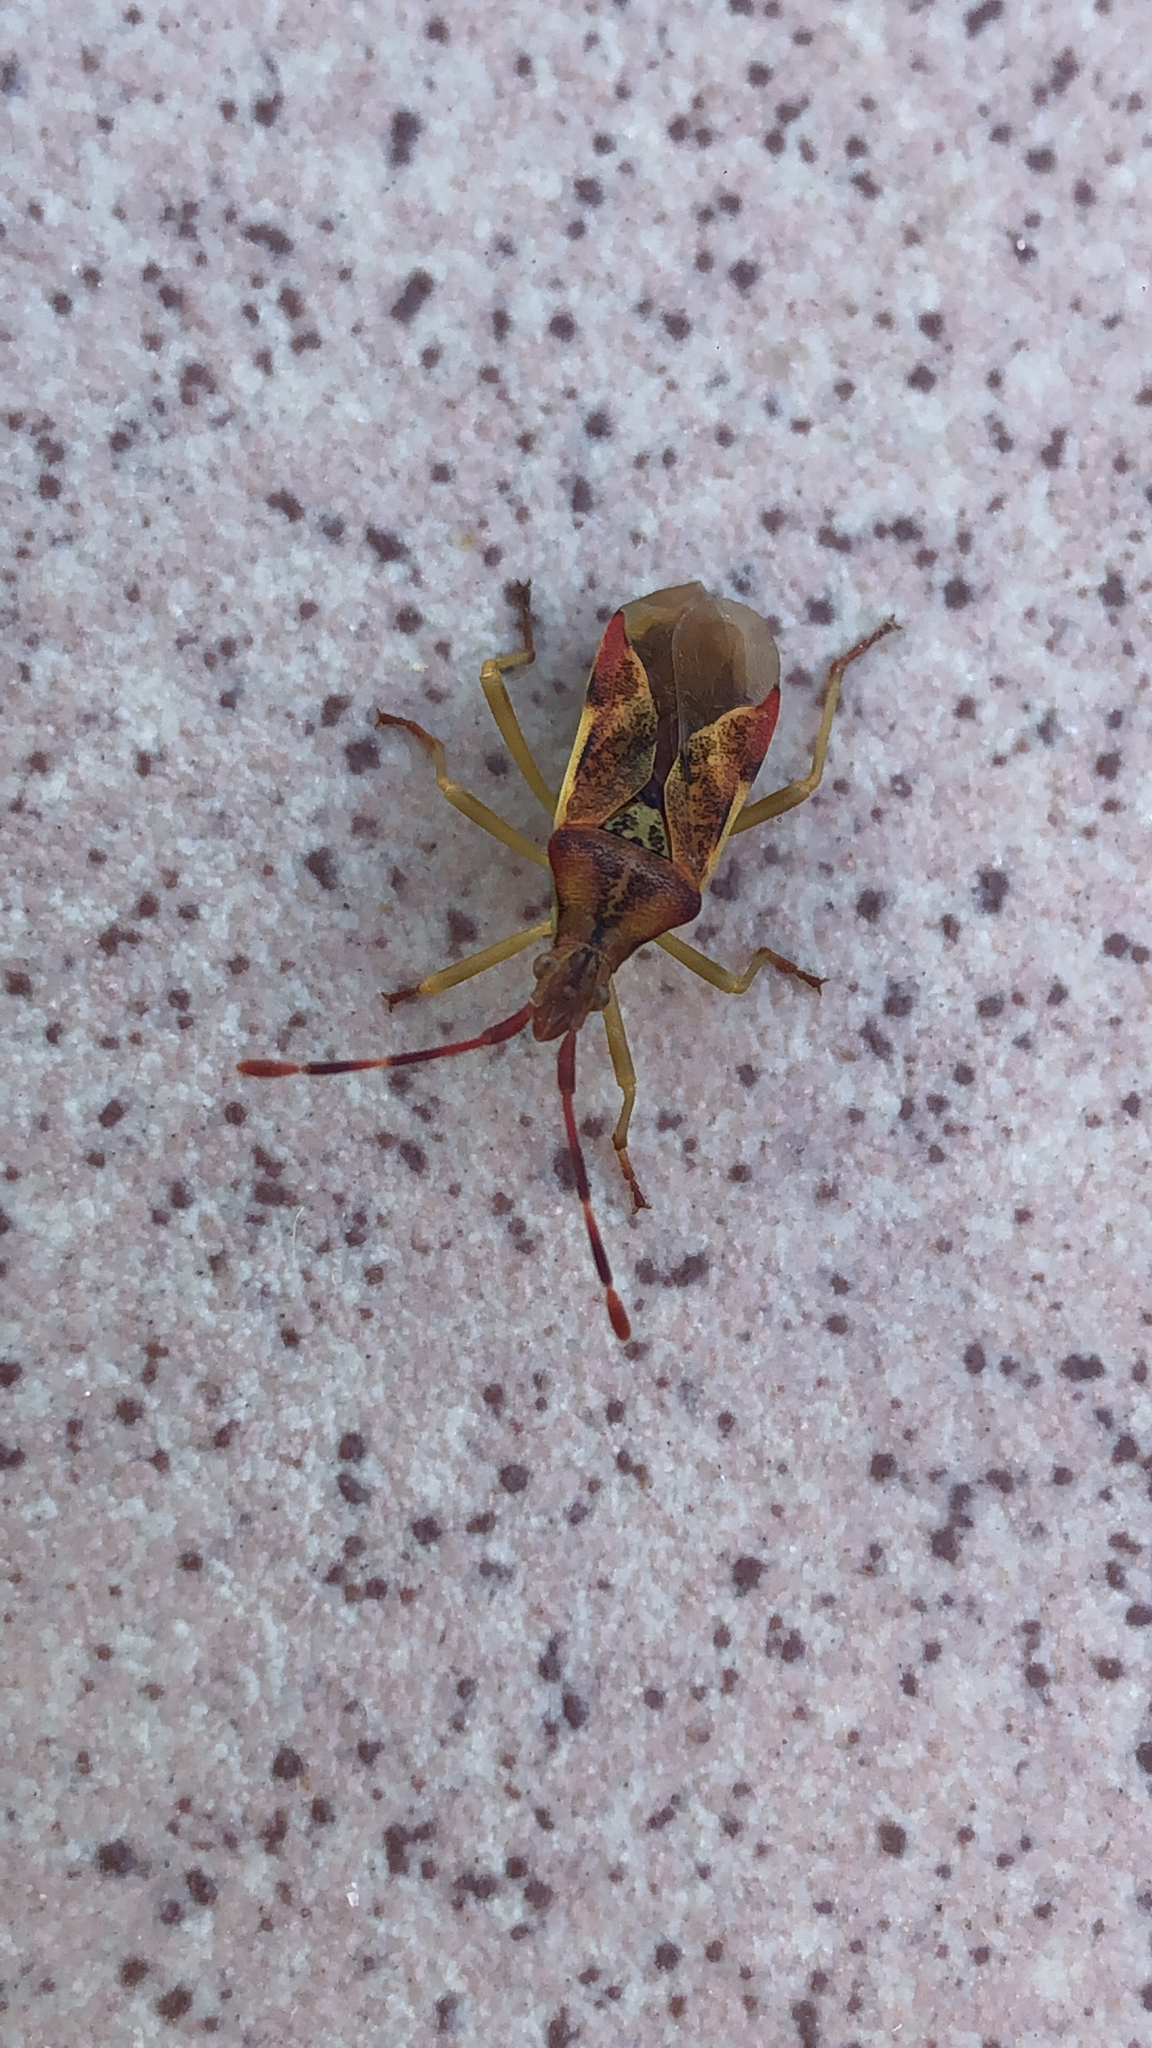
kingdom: Animalia
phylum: Arthropoda
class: Insecta
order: Hemiptera
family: Coreidae
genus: Gonocerus
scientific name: Gonocerus juniperi
